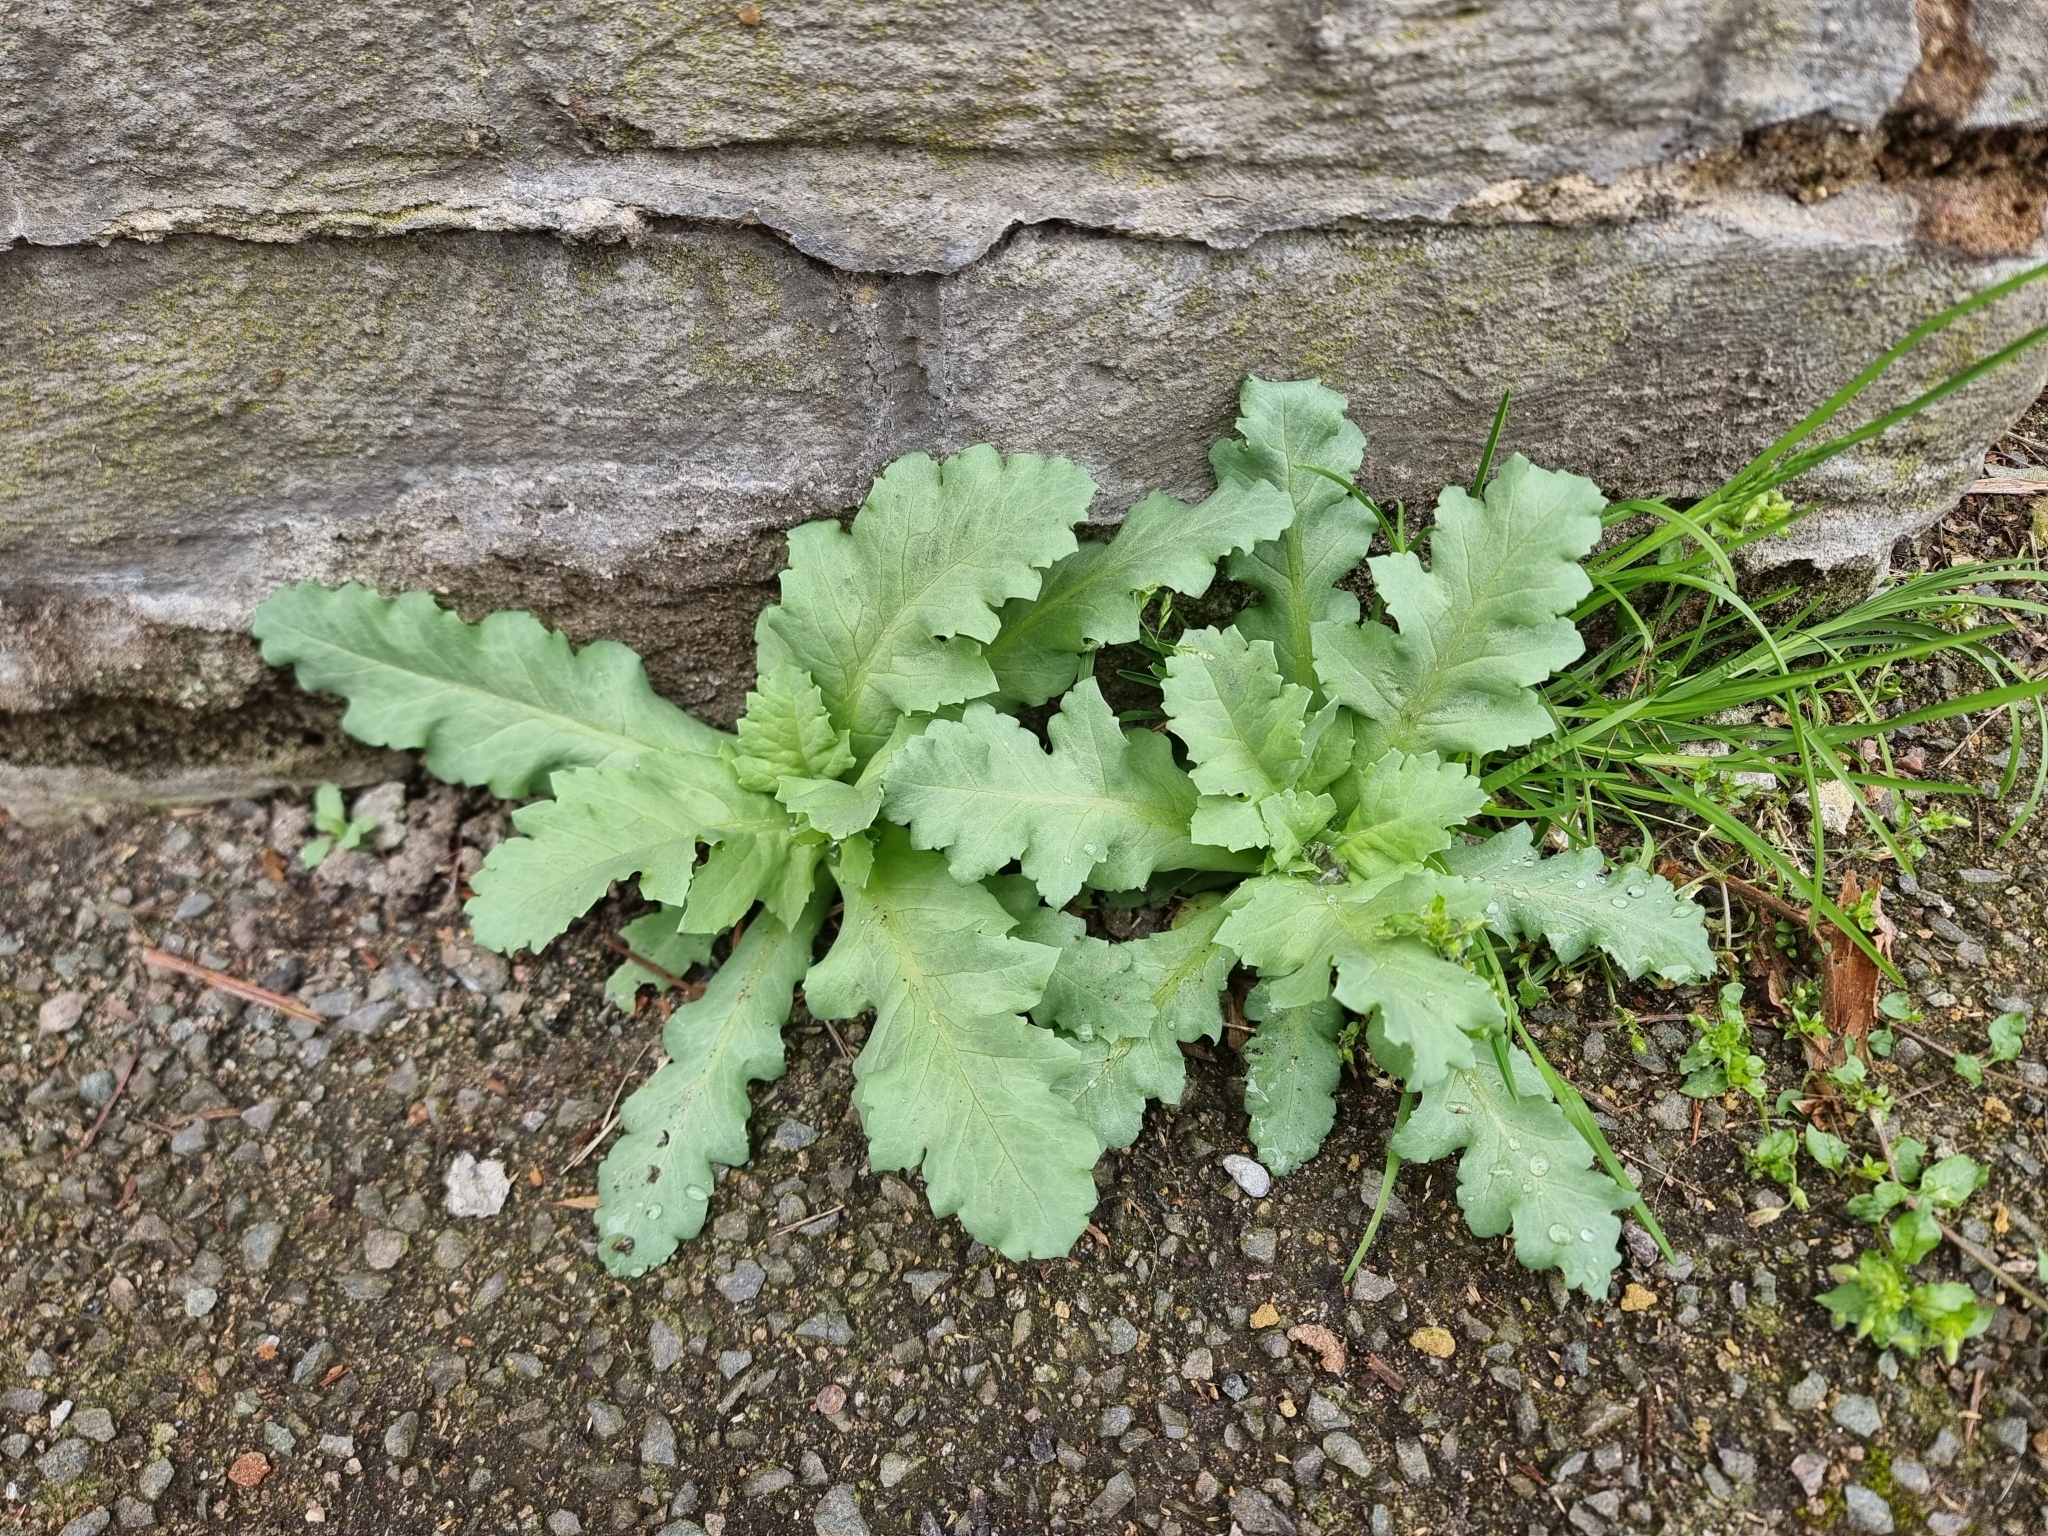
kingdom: Plantae
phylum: Tracheophyta
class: Magnoliopsida
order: Ranunculales
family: Papaveraceae
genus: Papaver
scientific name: Papaver somniferum
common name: Opium poppy
